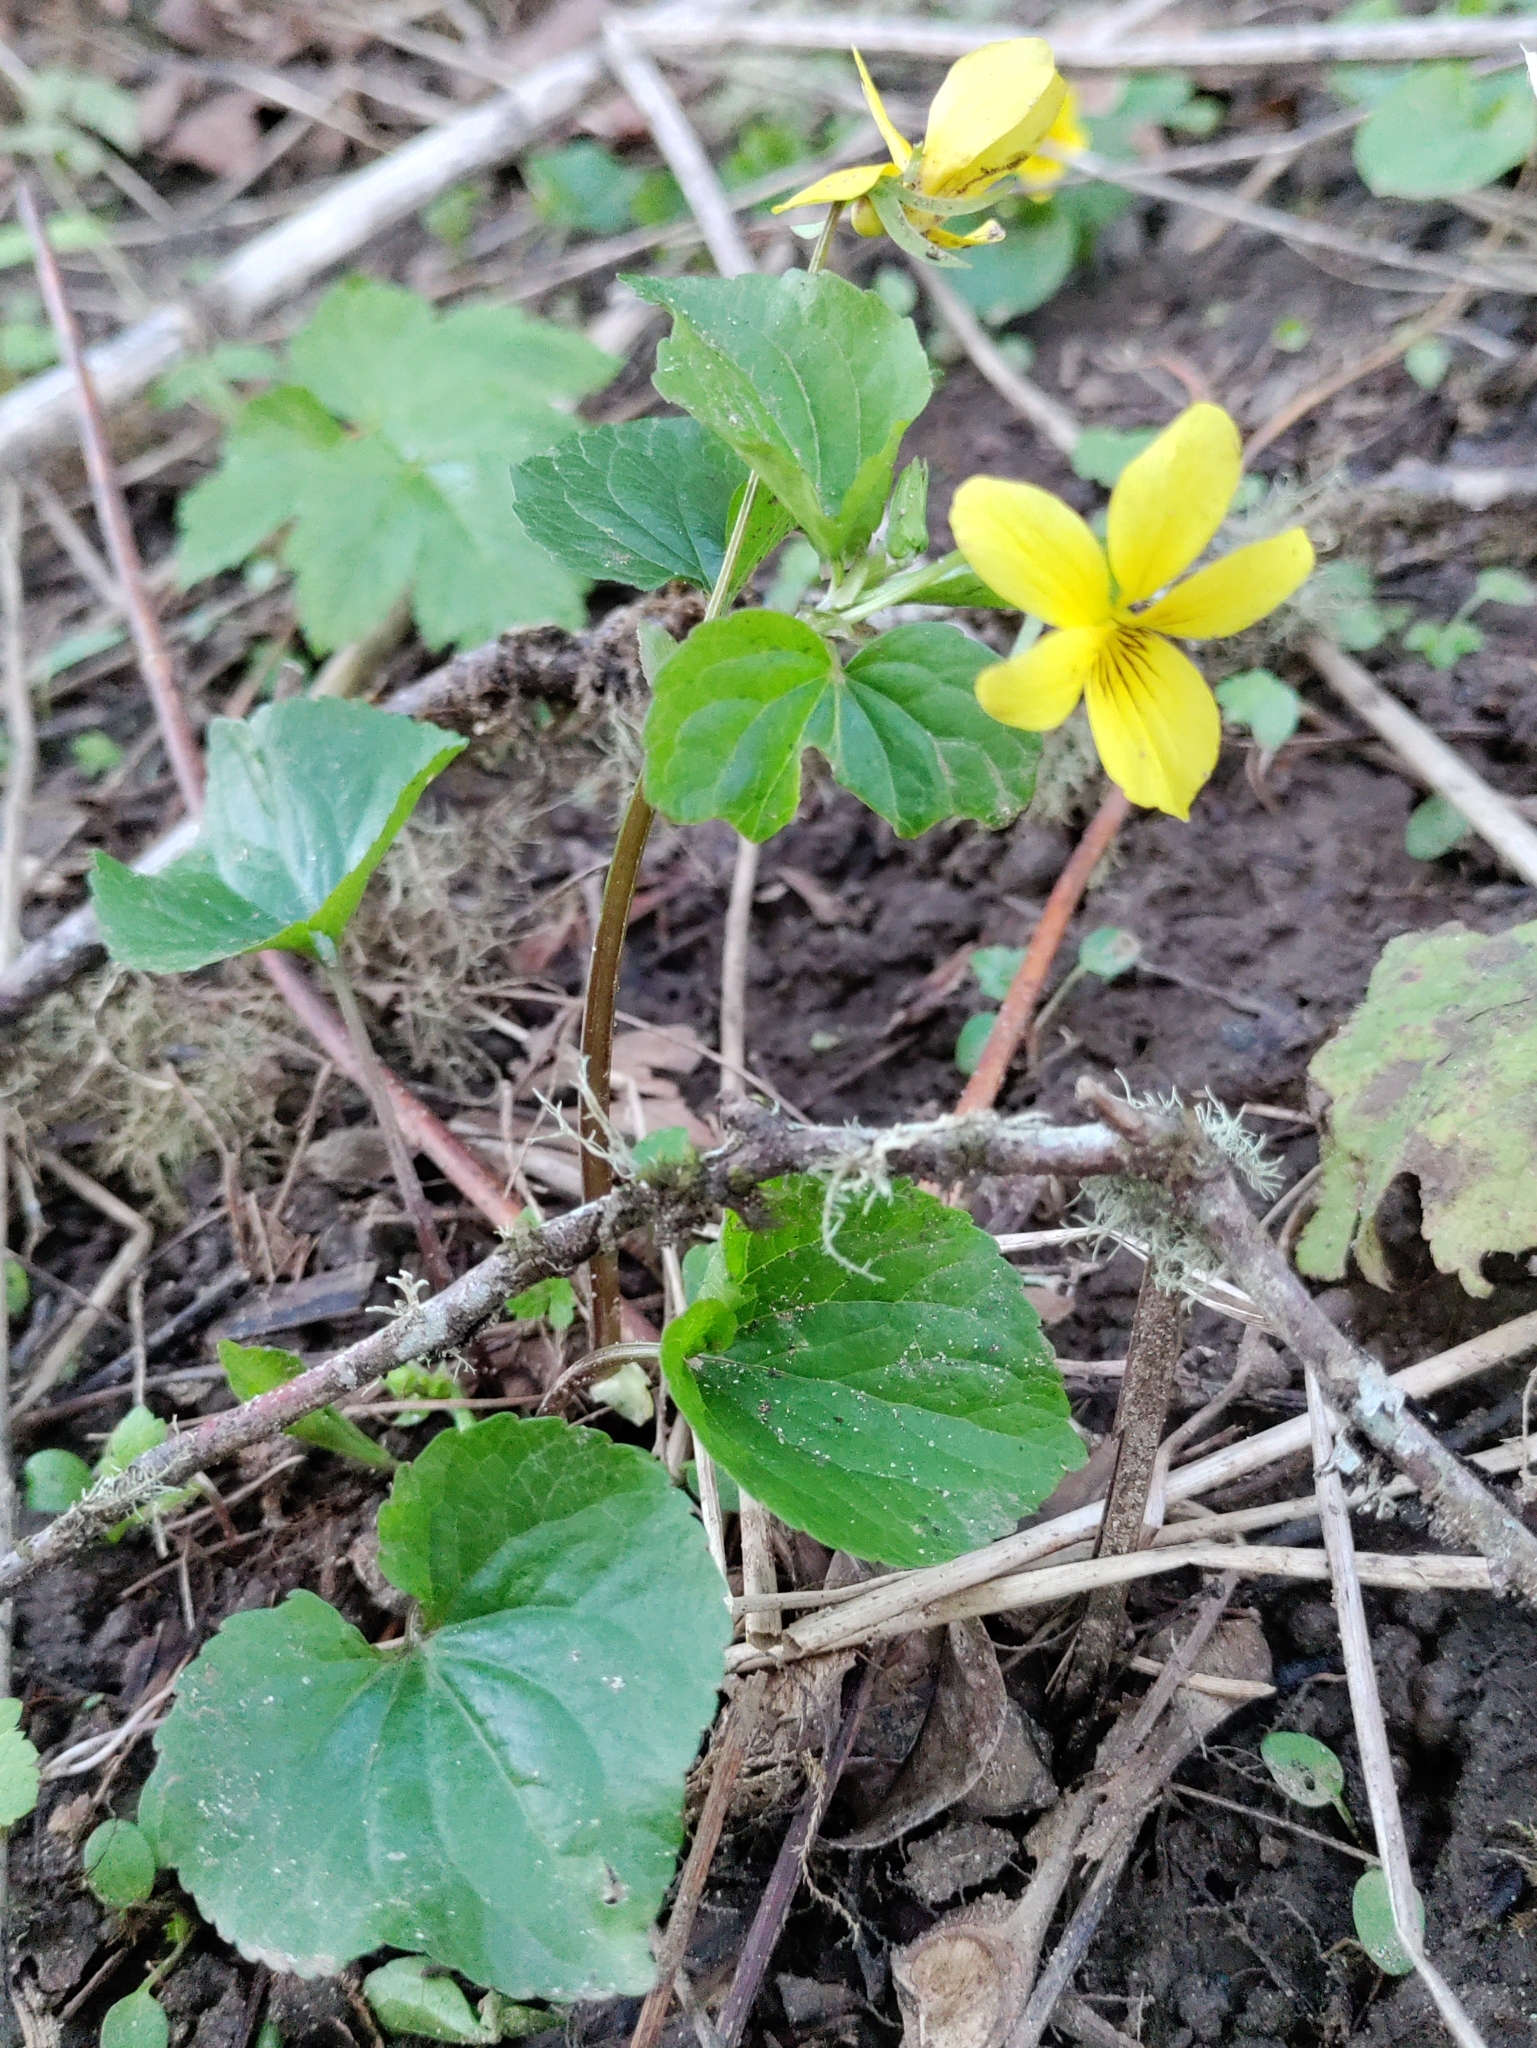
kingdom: Plantae
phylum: Tracheophyta
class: Magnoliopsida
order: Malpighiales
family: Violaceae
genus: Viola
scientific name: Viola glabella
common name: Stream violet
